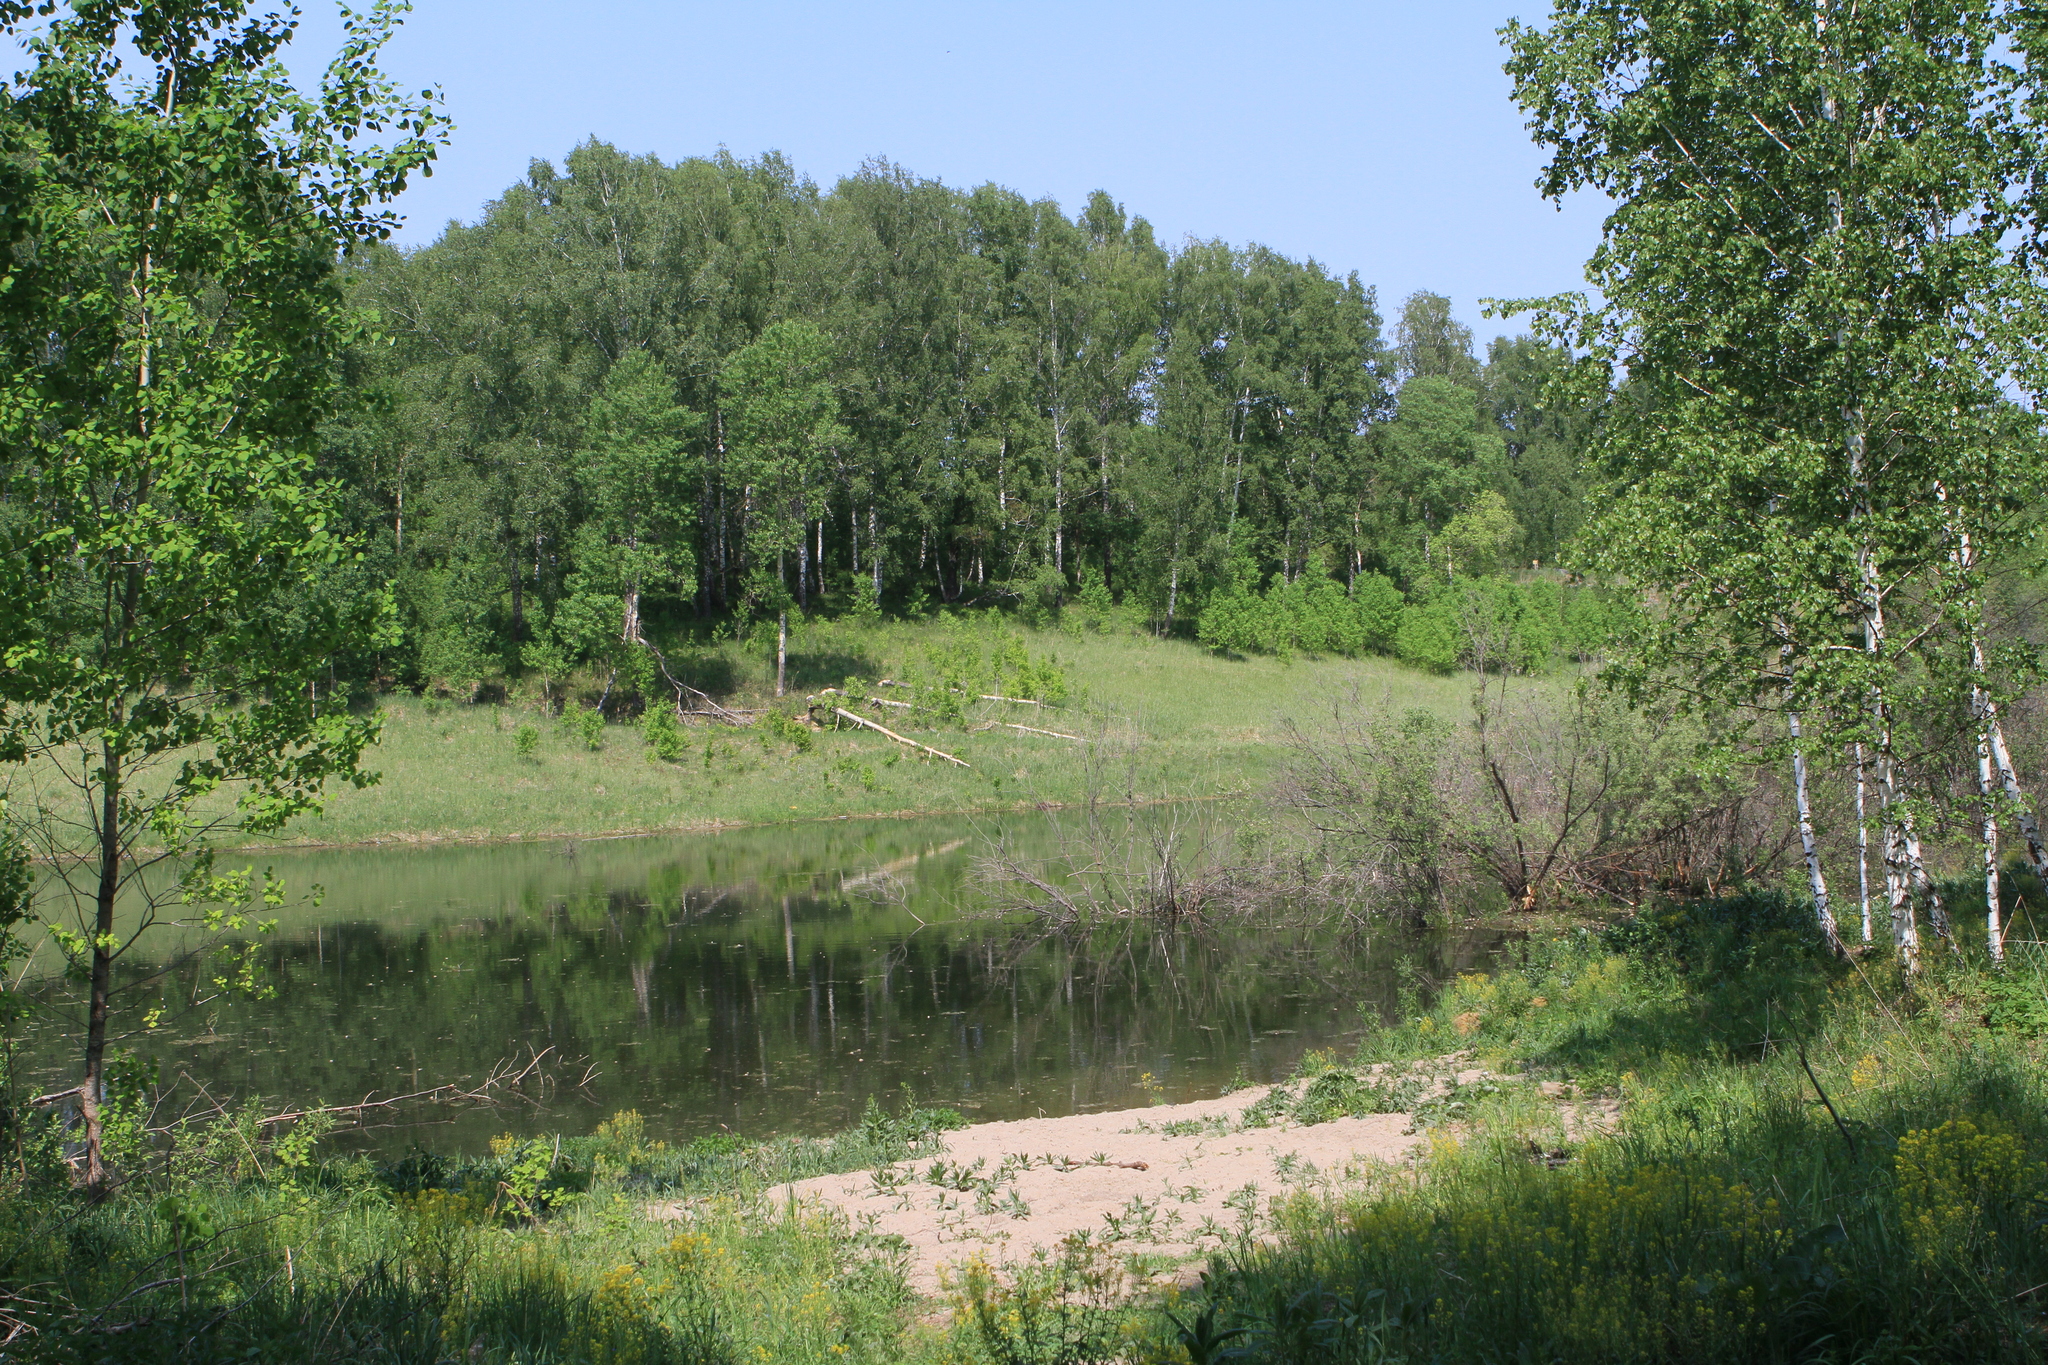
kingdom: Plantae
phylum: Tracheophyta
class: Magnoliopsida
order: Malpighiales
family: Salicaceae
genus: Populus
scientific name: Populus tremula
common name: European aspen
